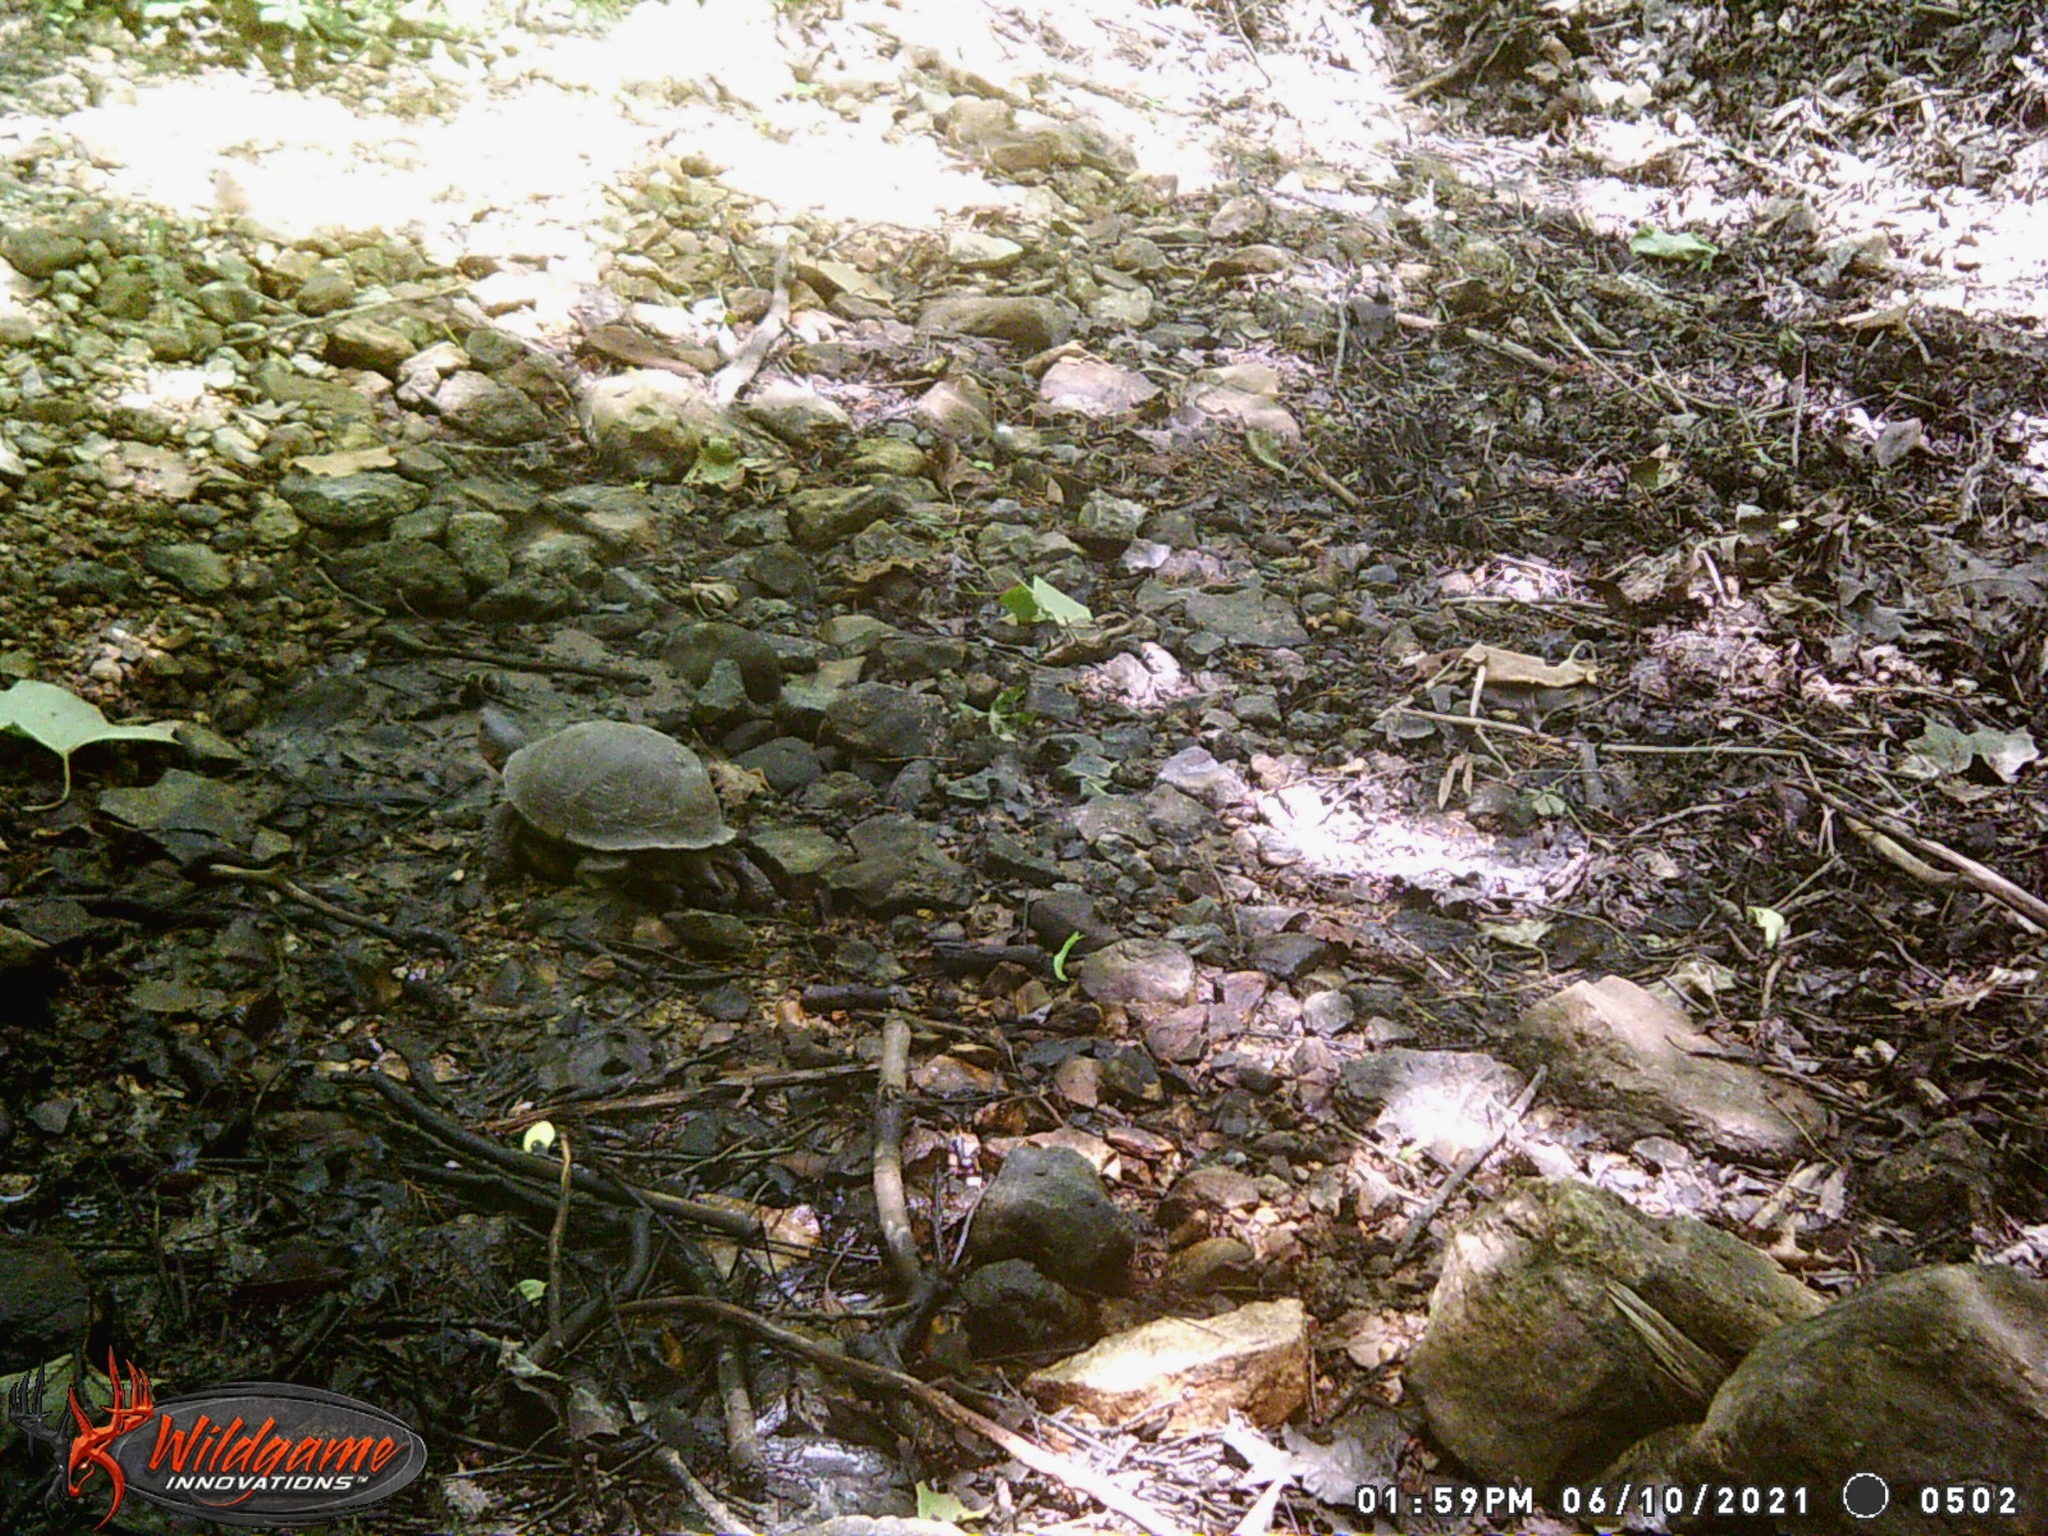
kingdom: Animalia
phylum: Chordata
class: Testudines
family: Emydidae
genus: Terrapene
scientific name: Terrapene carolina
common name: Common box turtle
